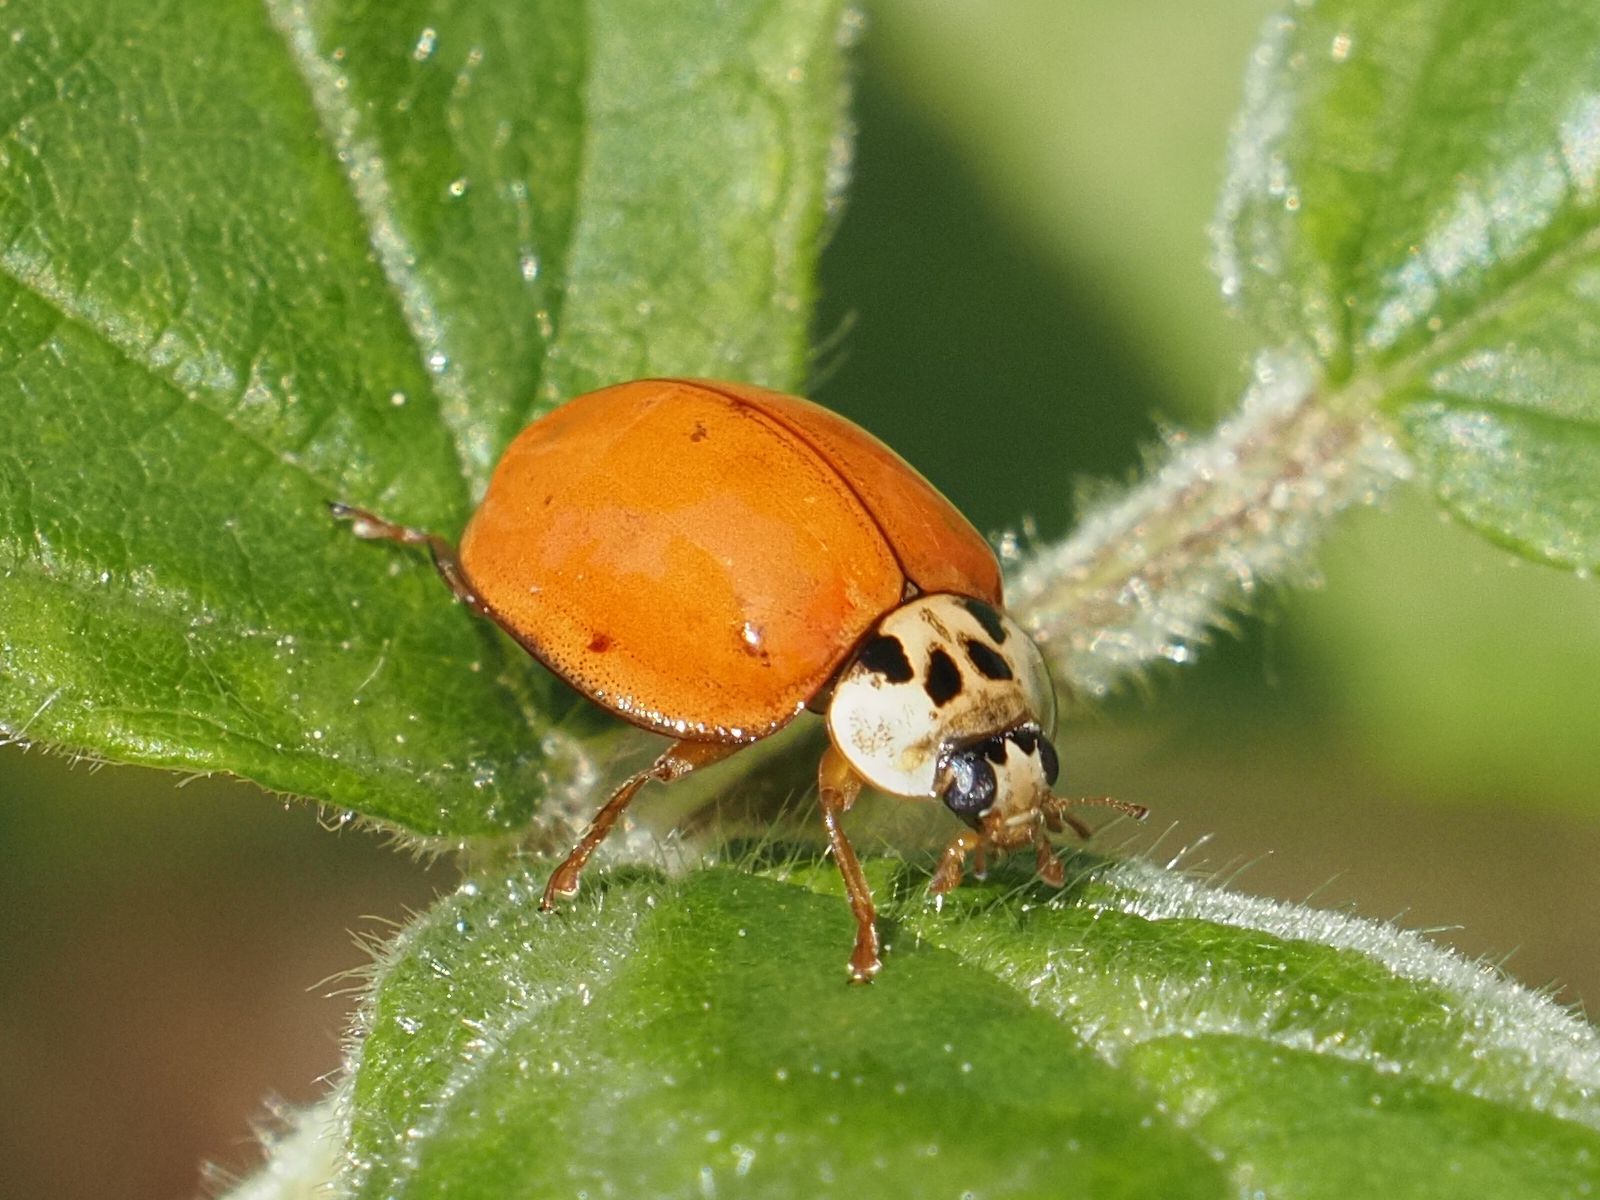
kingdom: Animalia
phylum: Arthropoda
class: Insecta
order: Coleoptera
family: Coccinellidae
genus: Harmonia
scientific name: Harmonia axyridis
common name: Harlequin ladybird
